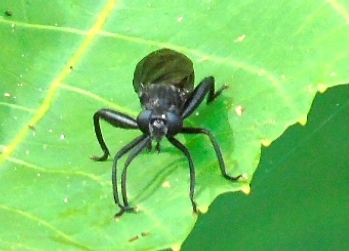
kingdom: Animalia
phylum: Arthropoda
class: Insecta
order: Diptera
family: Mydidae
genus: Mydas
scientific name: Mydas
